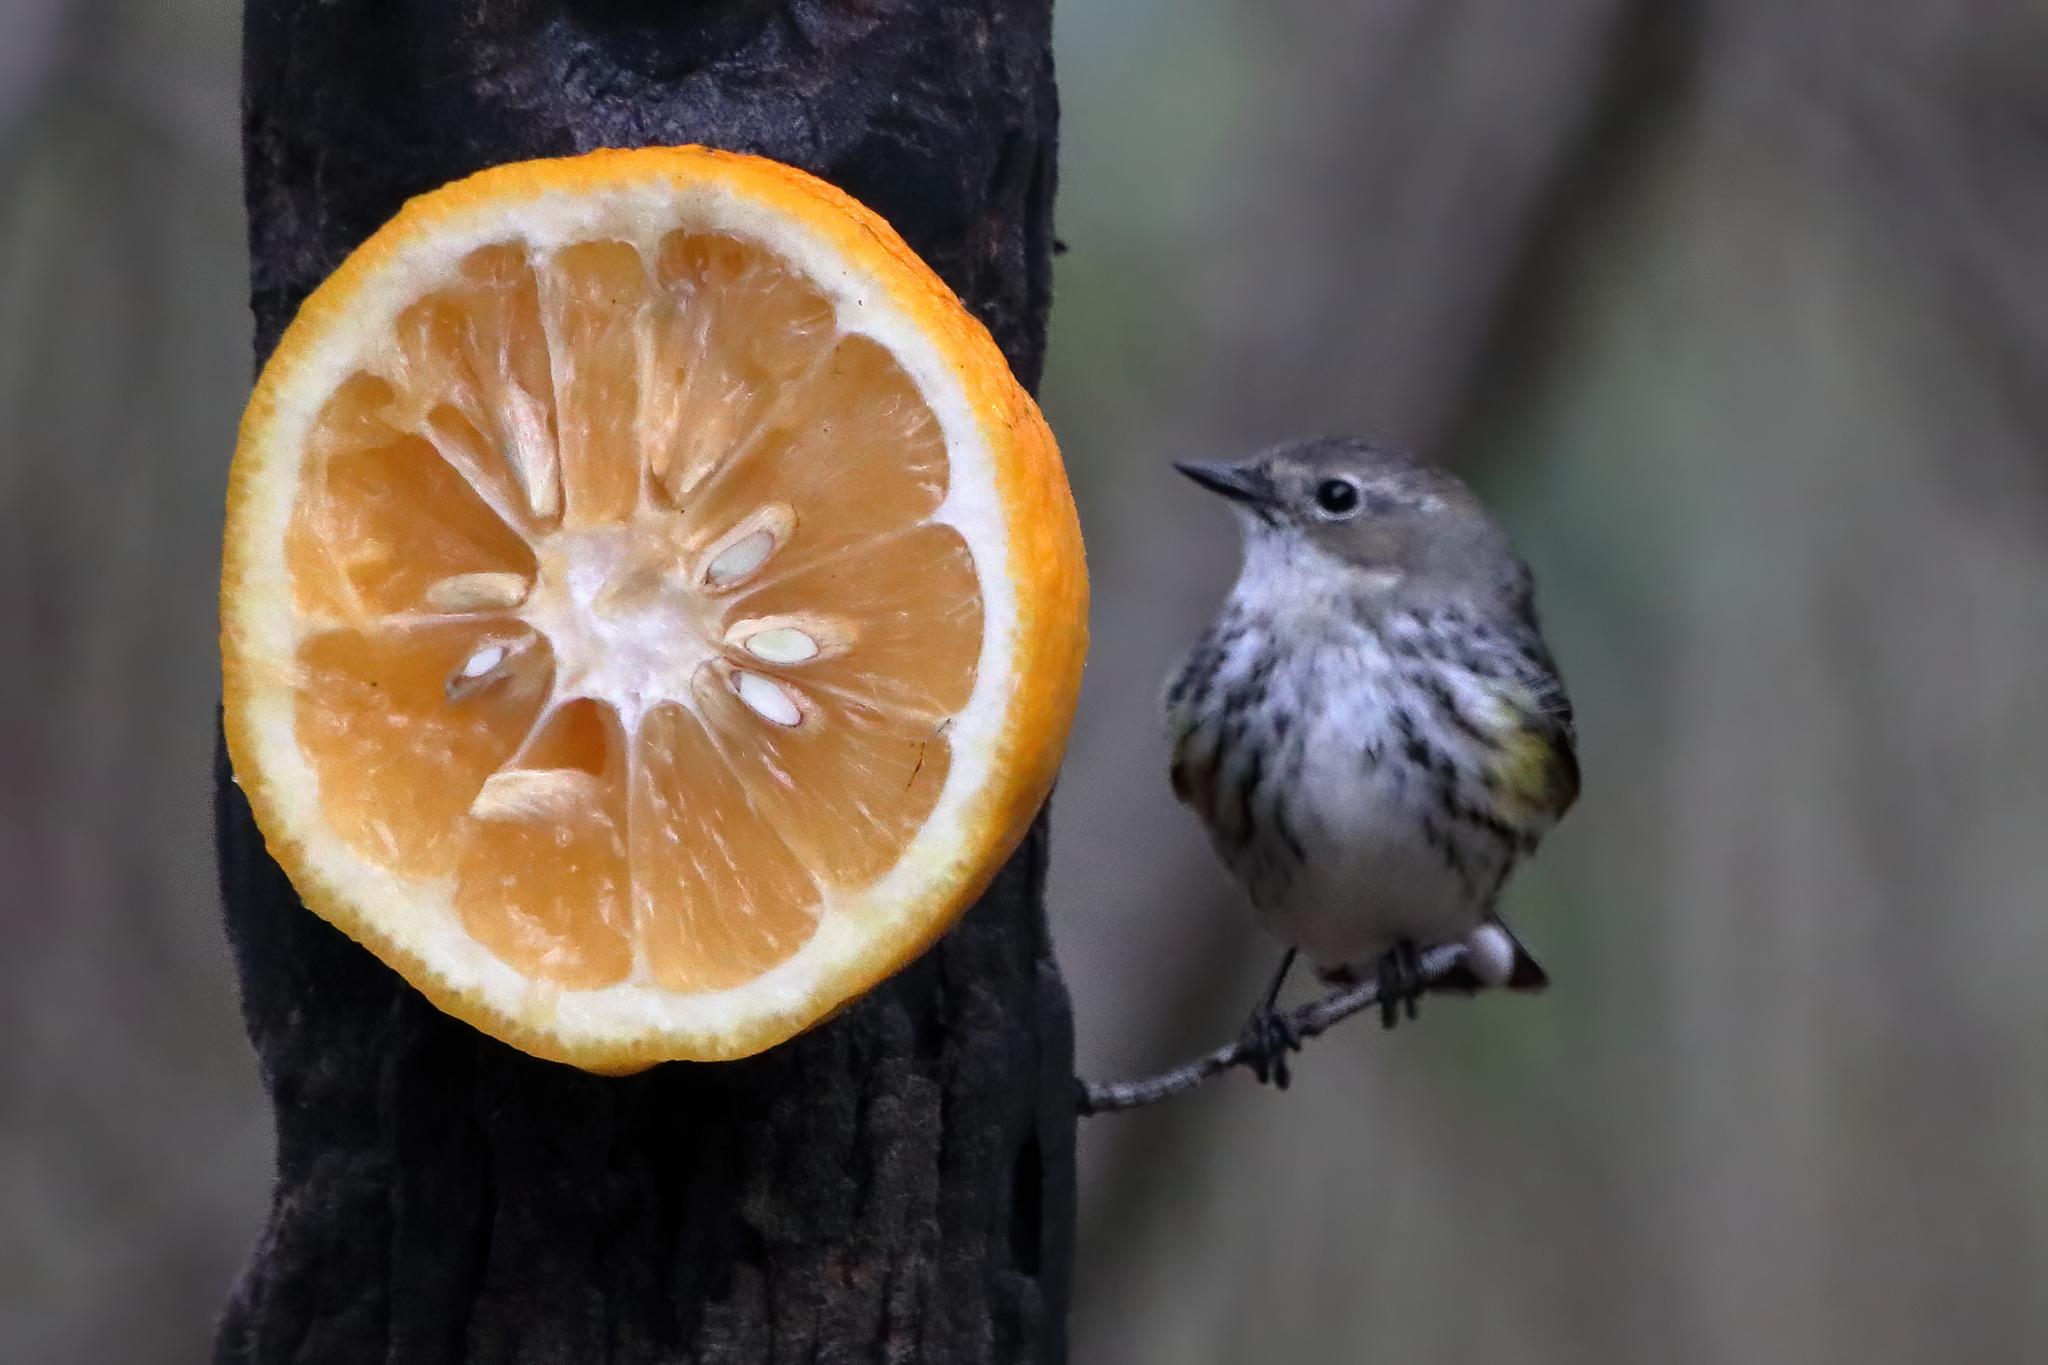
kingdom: Animalia
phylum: Chordata
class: Aves
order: Passeriformes
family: Parulidae
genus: Setophaga
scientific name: Setophaga coronata
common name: Myrtle warbler
